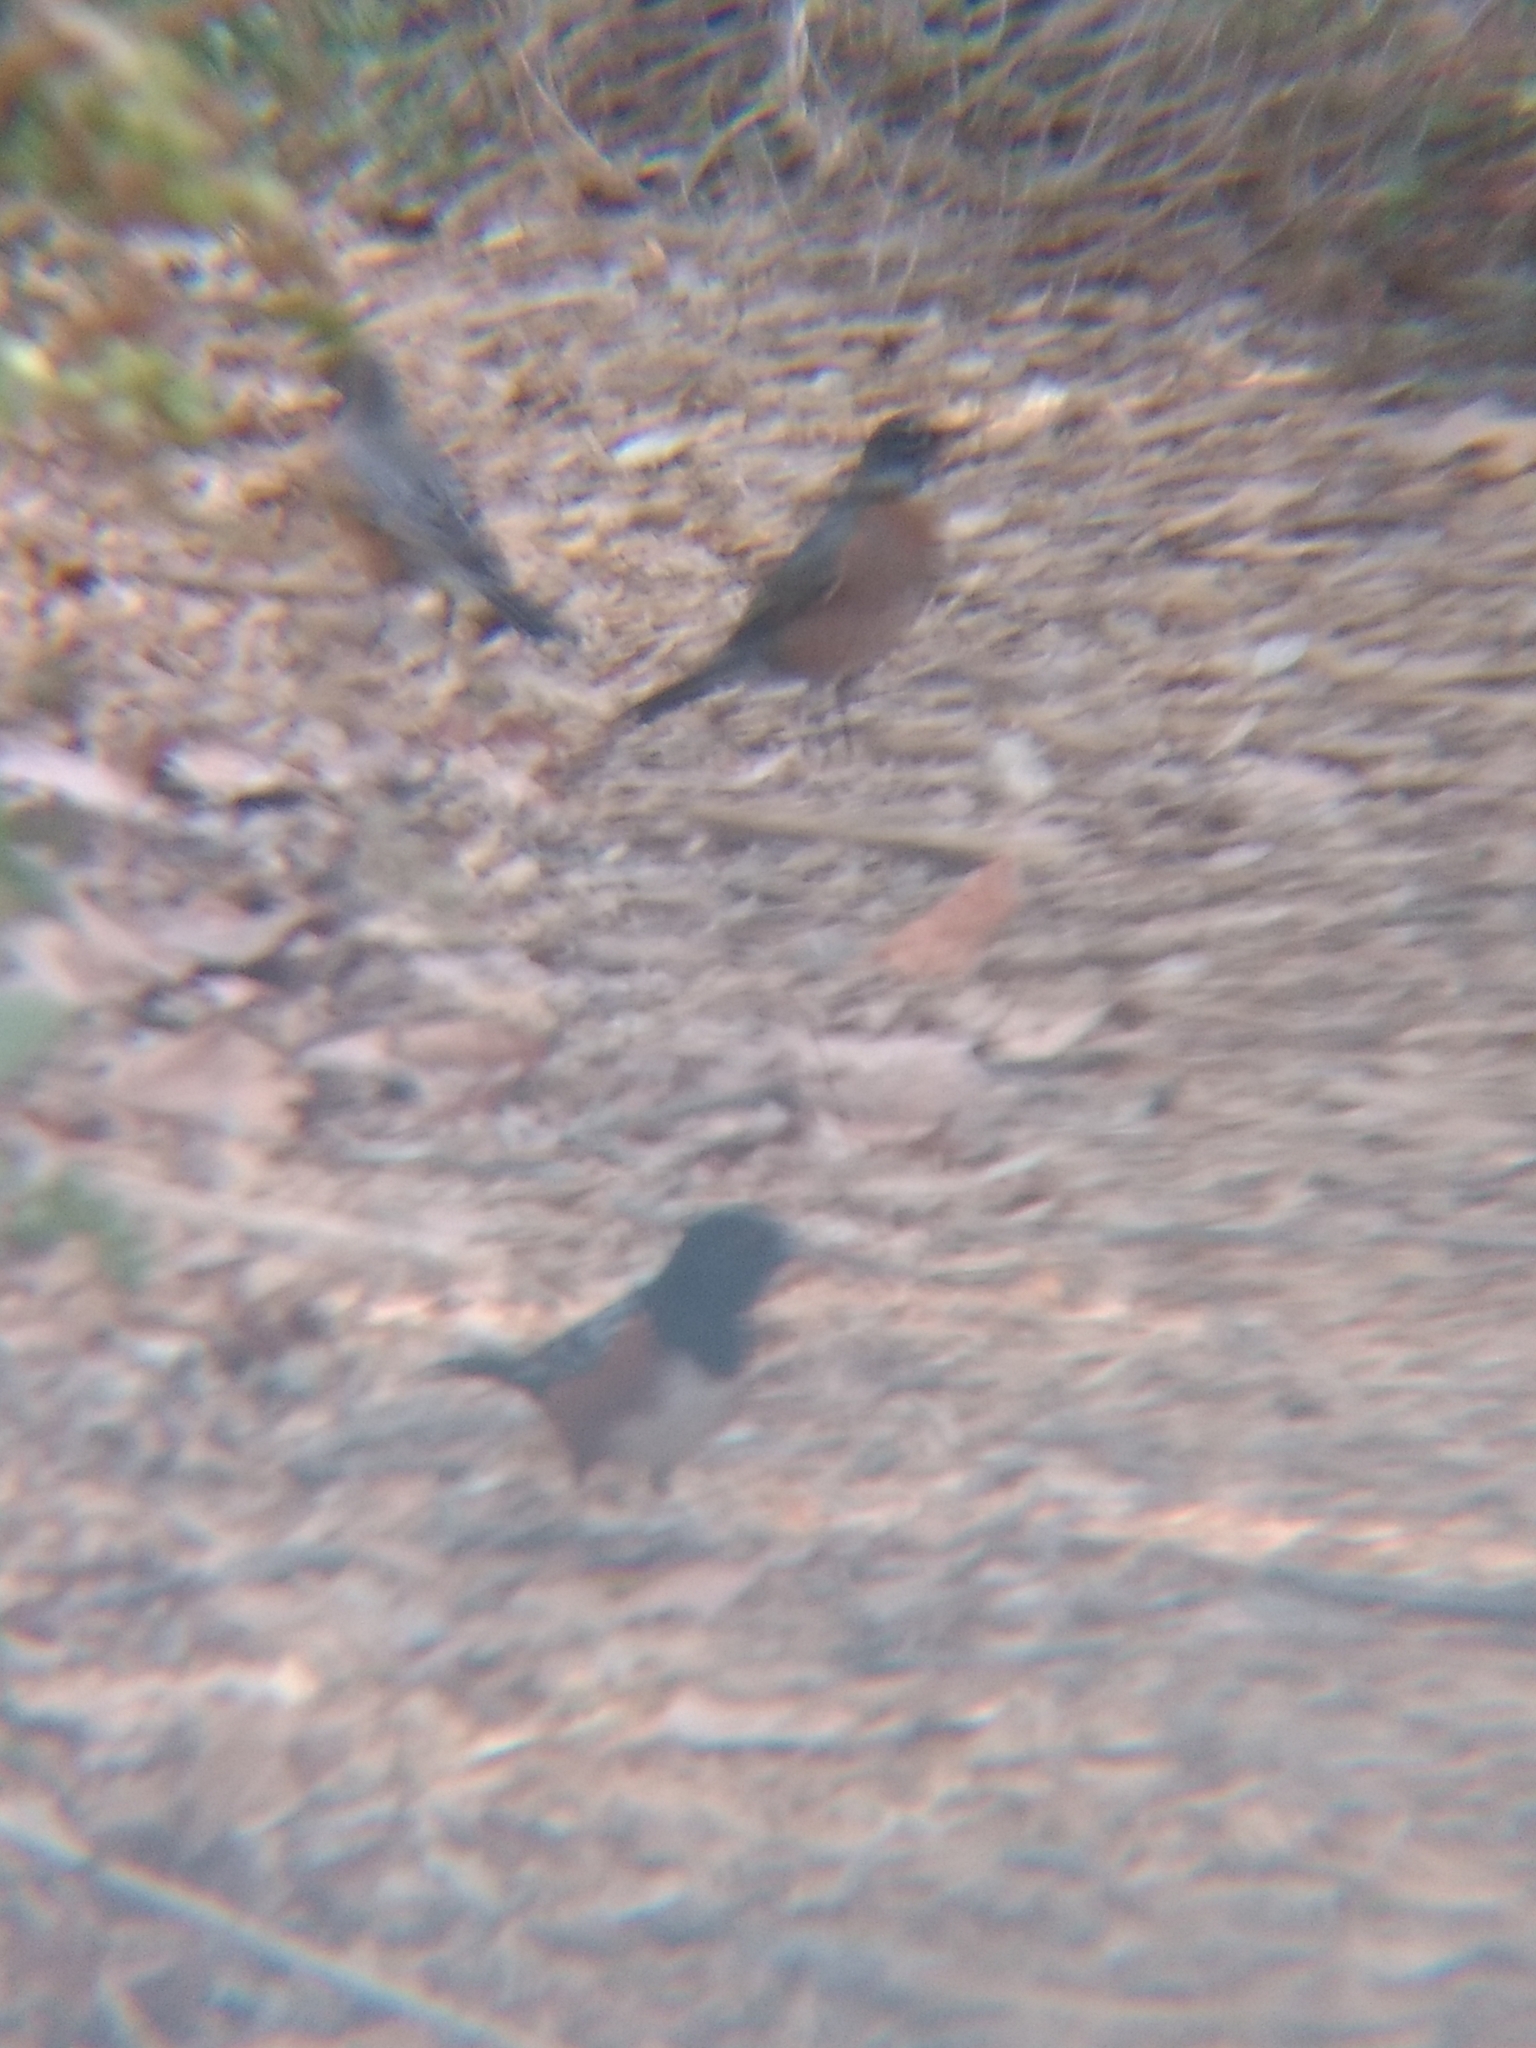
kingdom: Animalia
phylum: Chordata
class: Aves
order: Passeriformes
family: Passerellidae
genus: Pipilo
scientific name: Pipilo maculatus
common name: Spotted towhee
